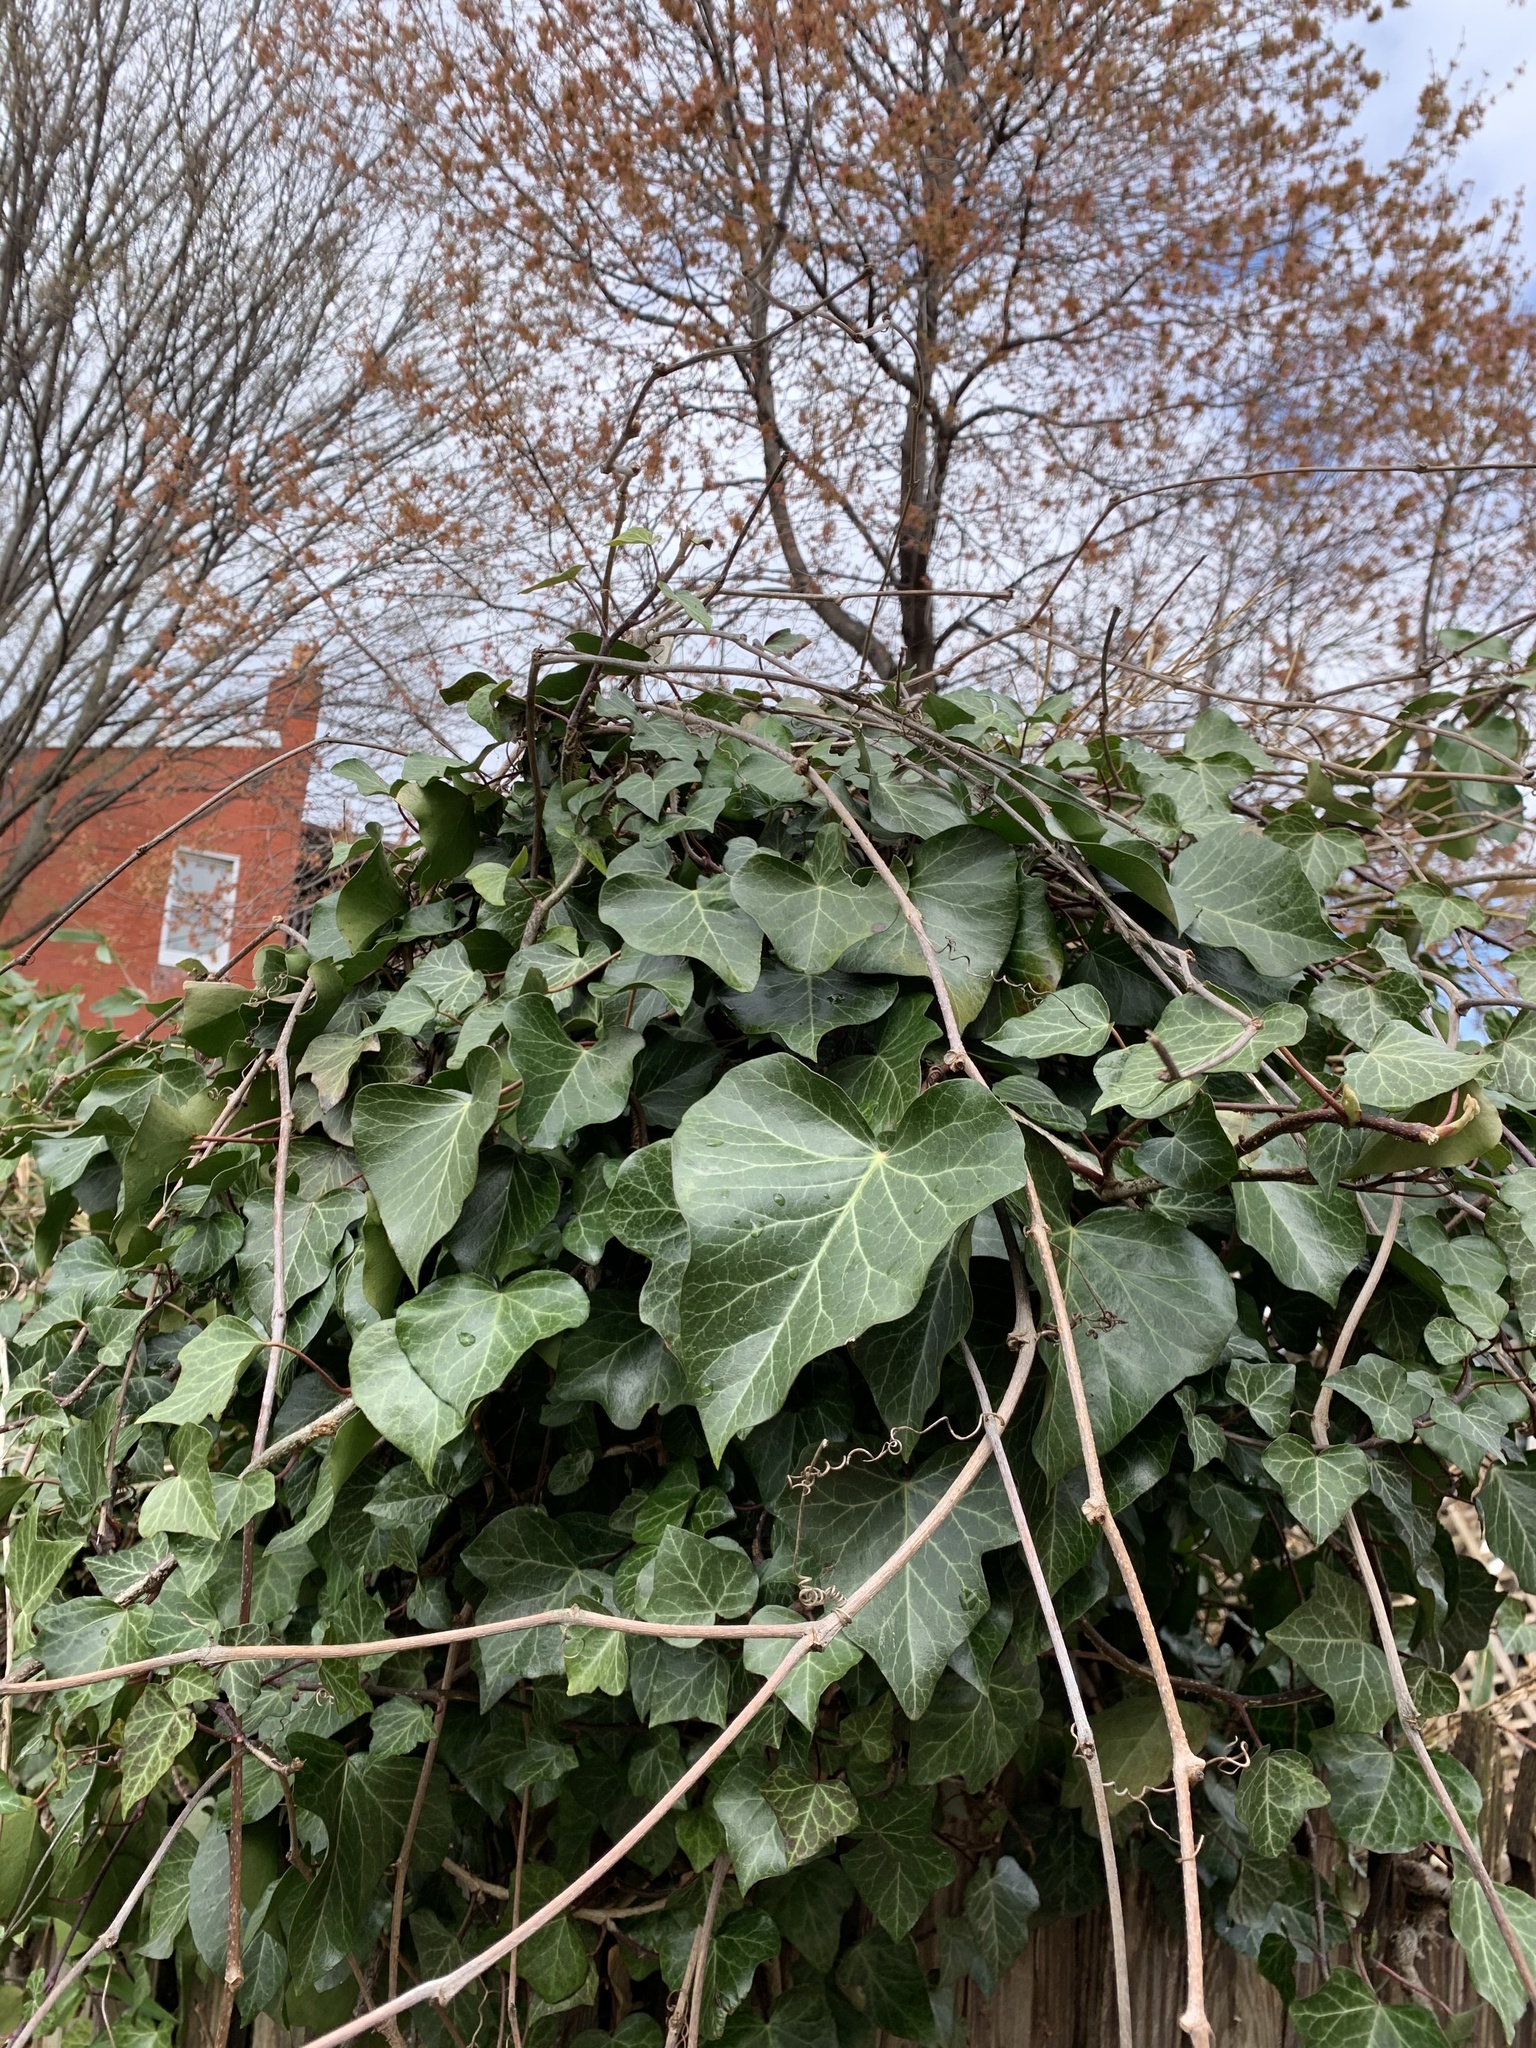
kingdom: Plantae
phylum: Tracheophyta
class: Magnoliopsida
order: Apiales
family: Araliaceae
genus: Hedera
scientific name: Hedera helix
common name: Ivy
